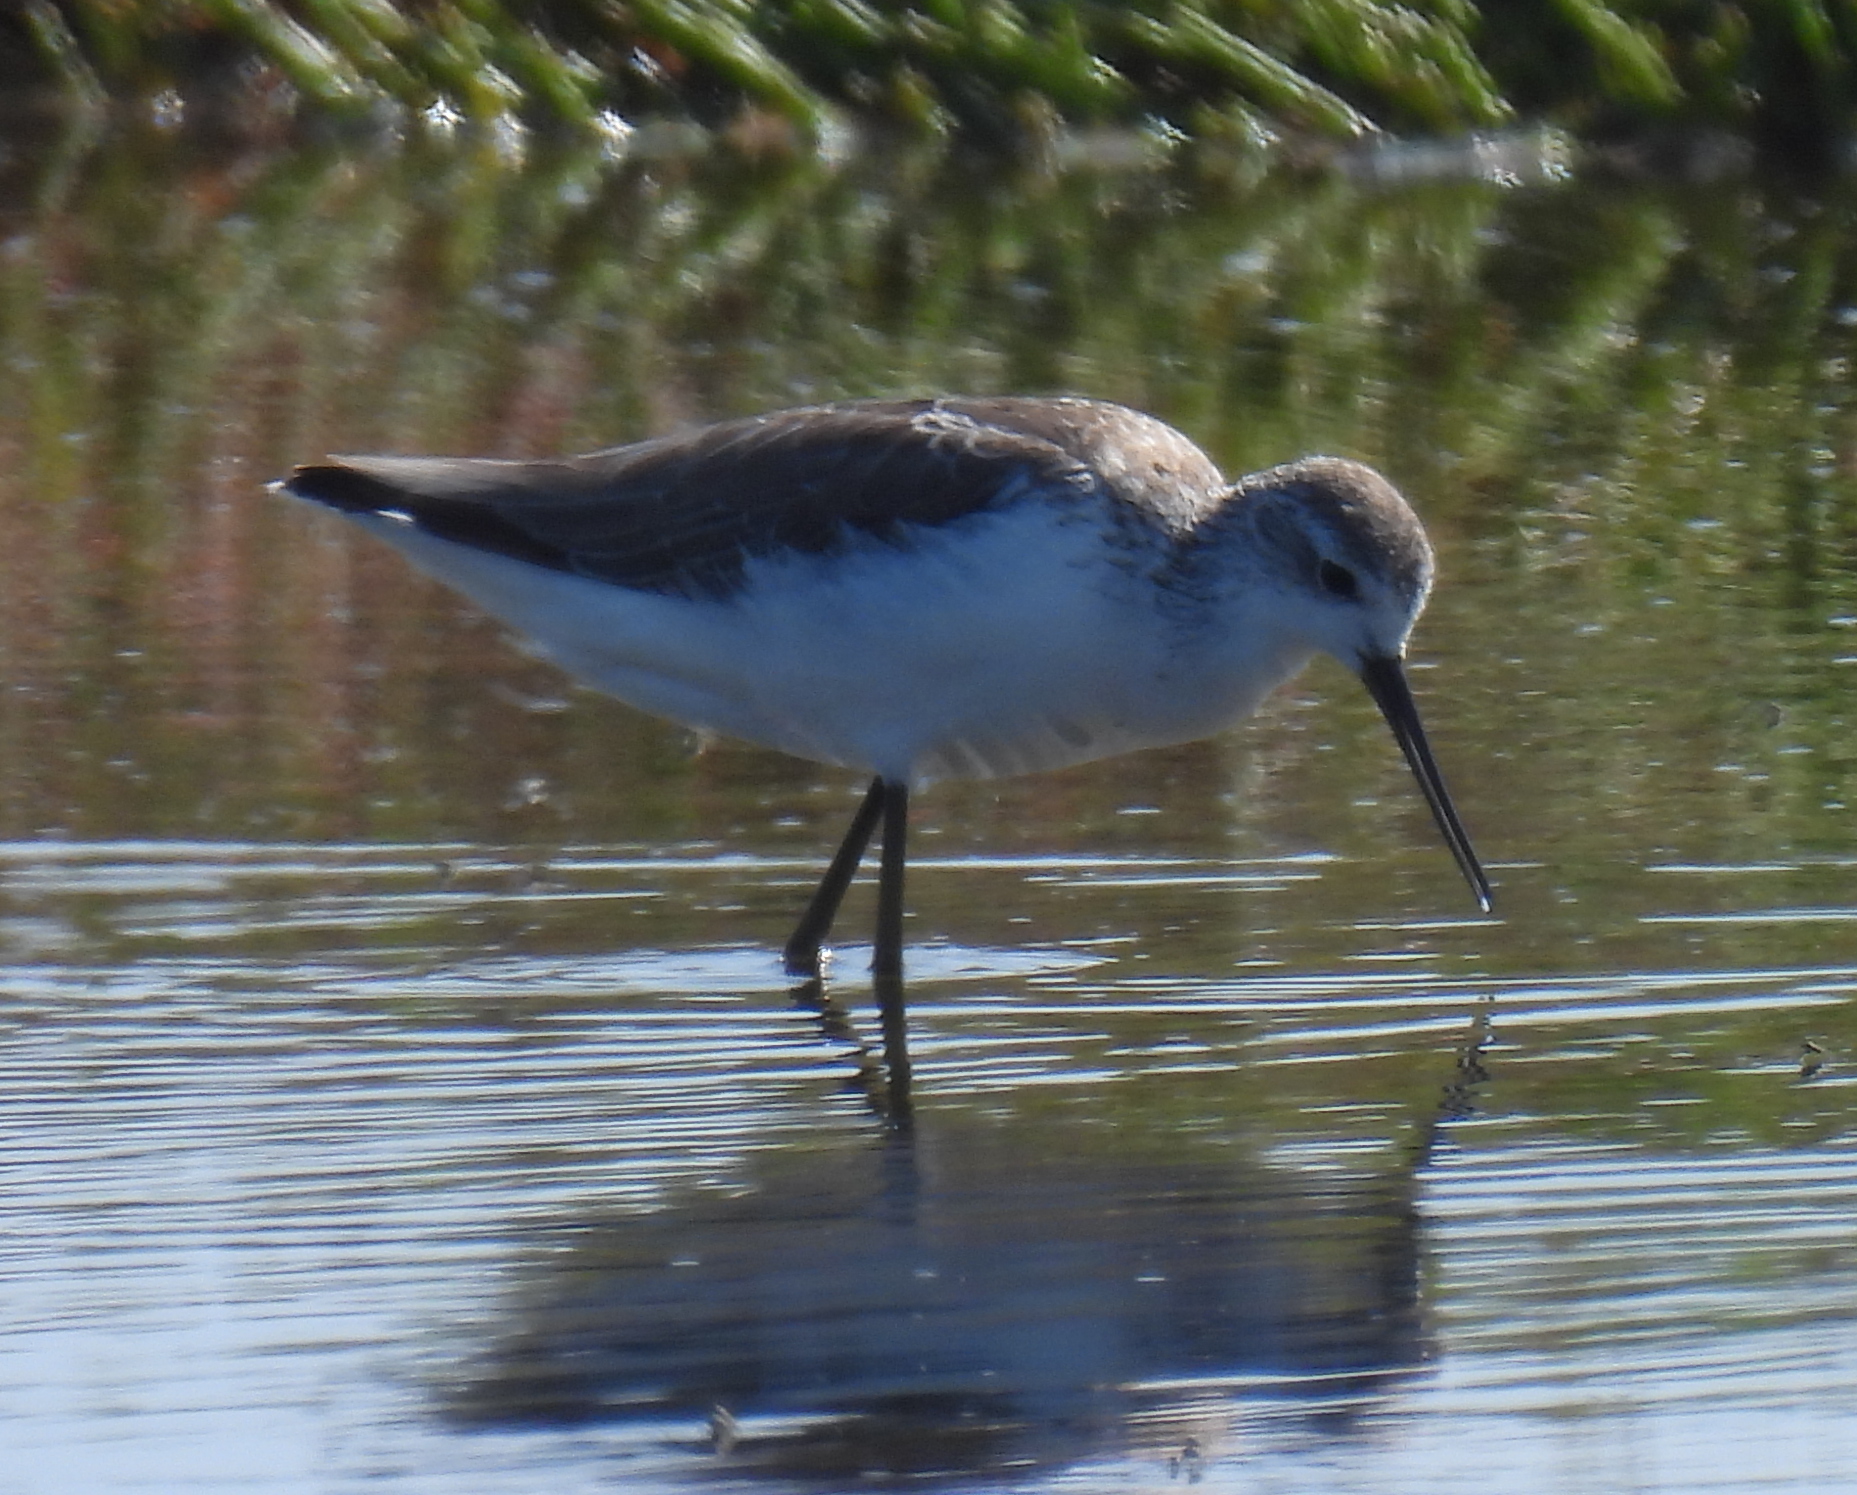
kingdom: Animalia
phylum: Chordata
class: Aves
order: Charadriiformes
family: Scolopacidae
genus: Tringa
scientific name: Tringa stagnatilis
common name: Marsh sandpiper
